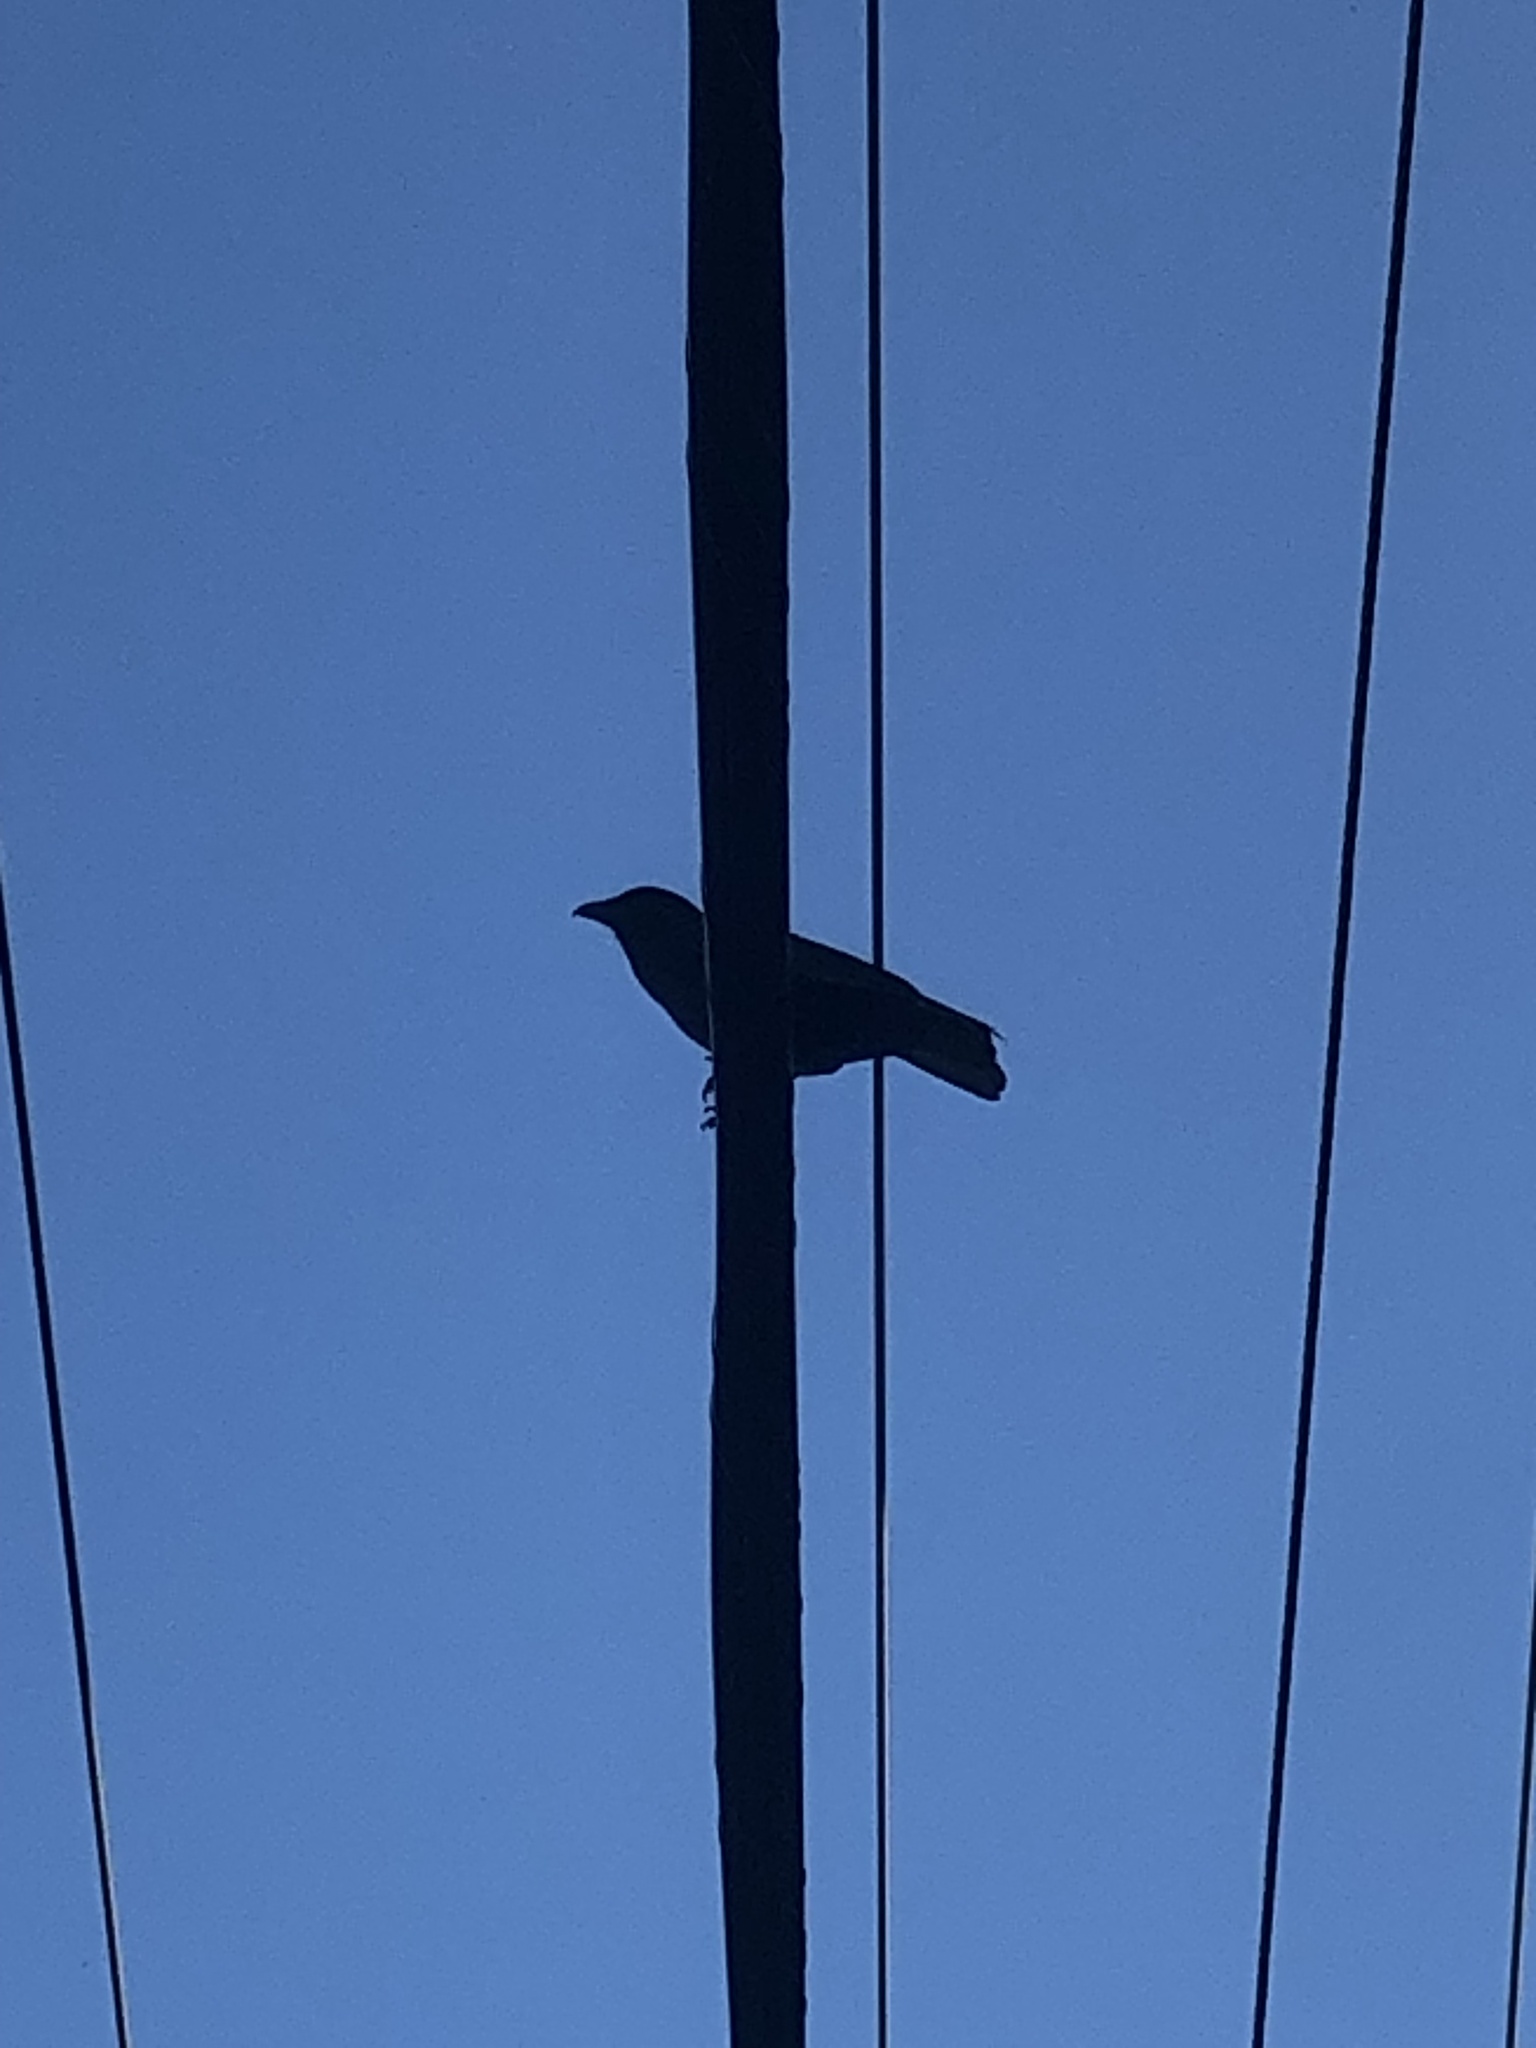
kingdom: Animalia
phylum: Chordata
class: Aves
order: Passeriformes
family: Corvidae
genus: Corvus
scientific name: Corvus brachyrhynchos
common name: American crow
